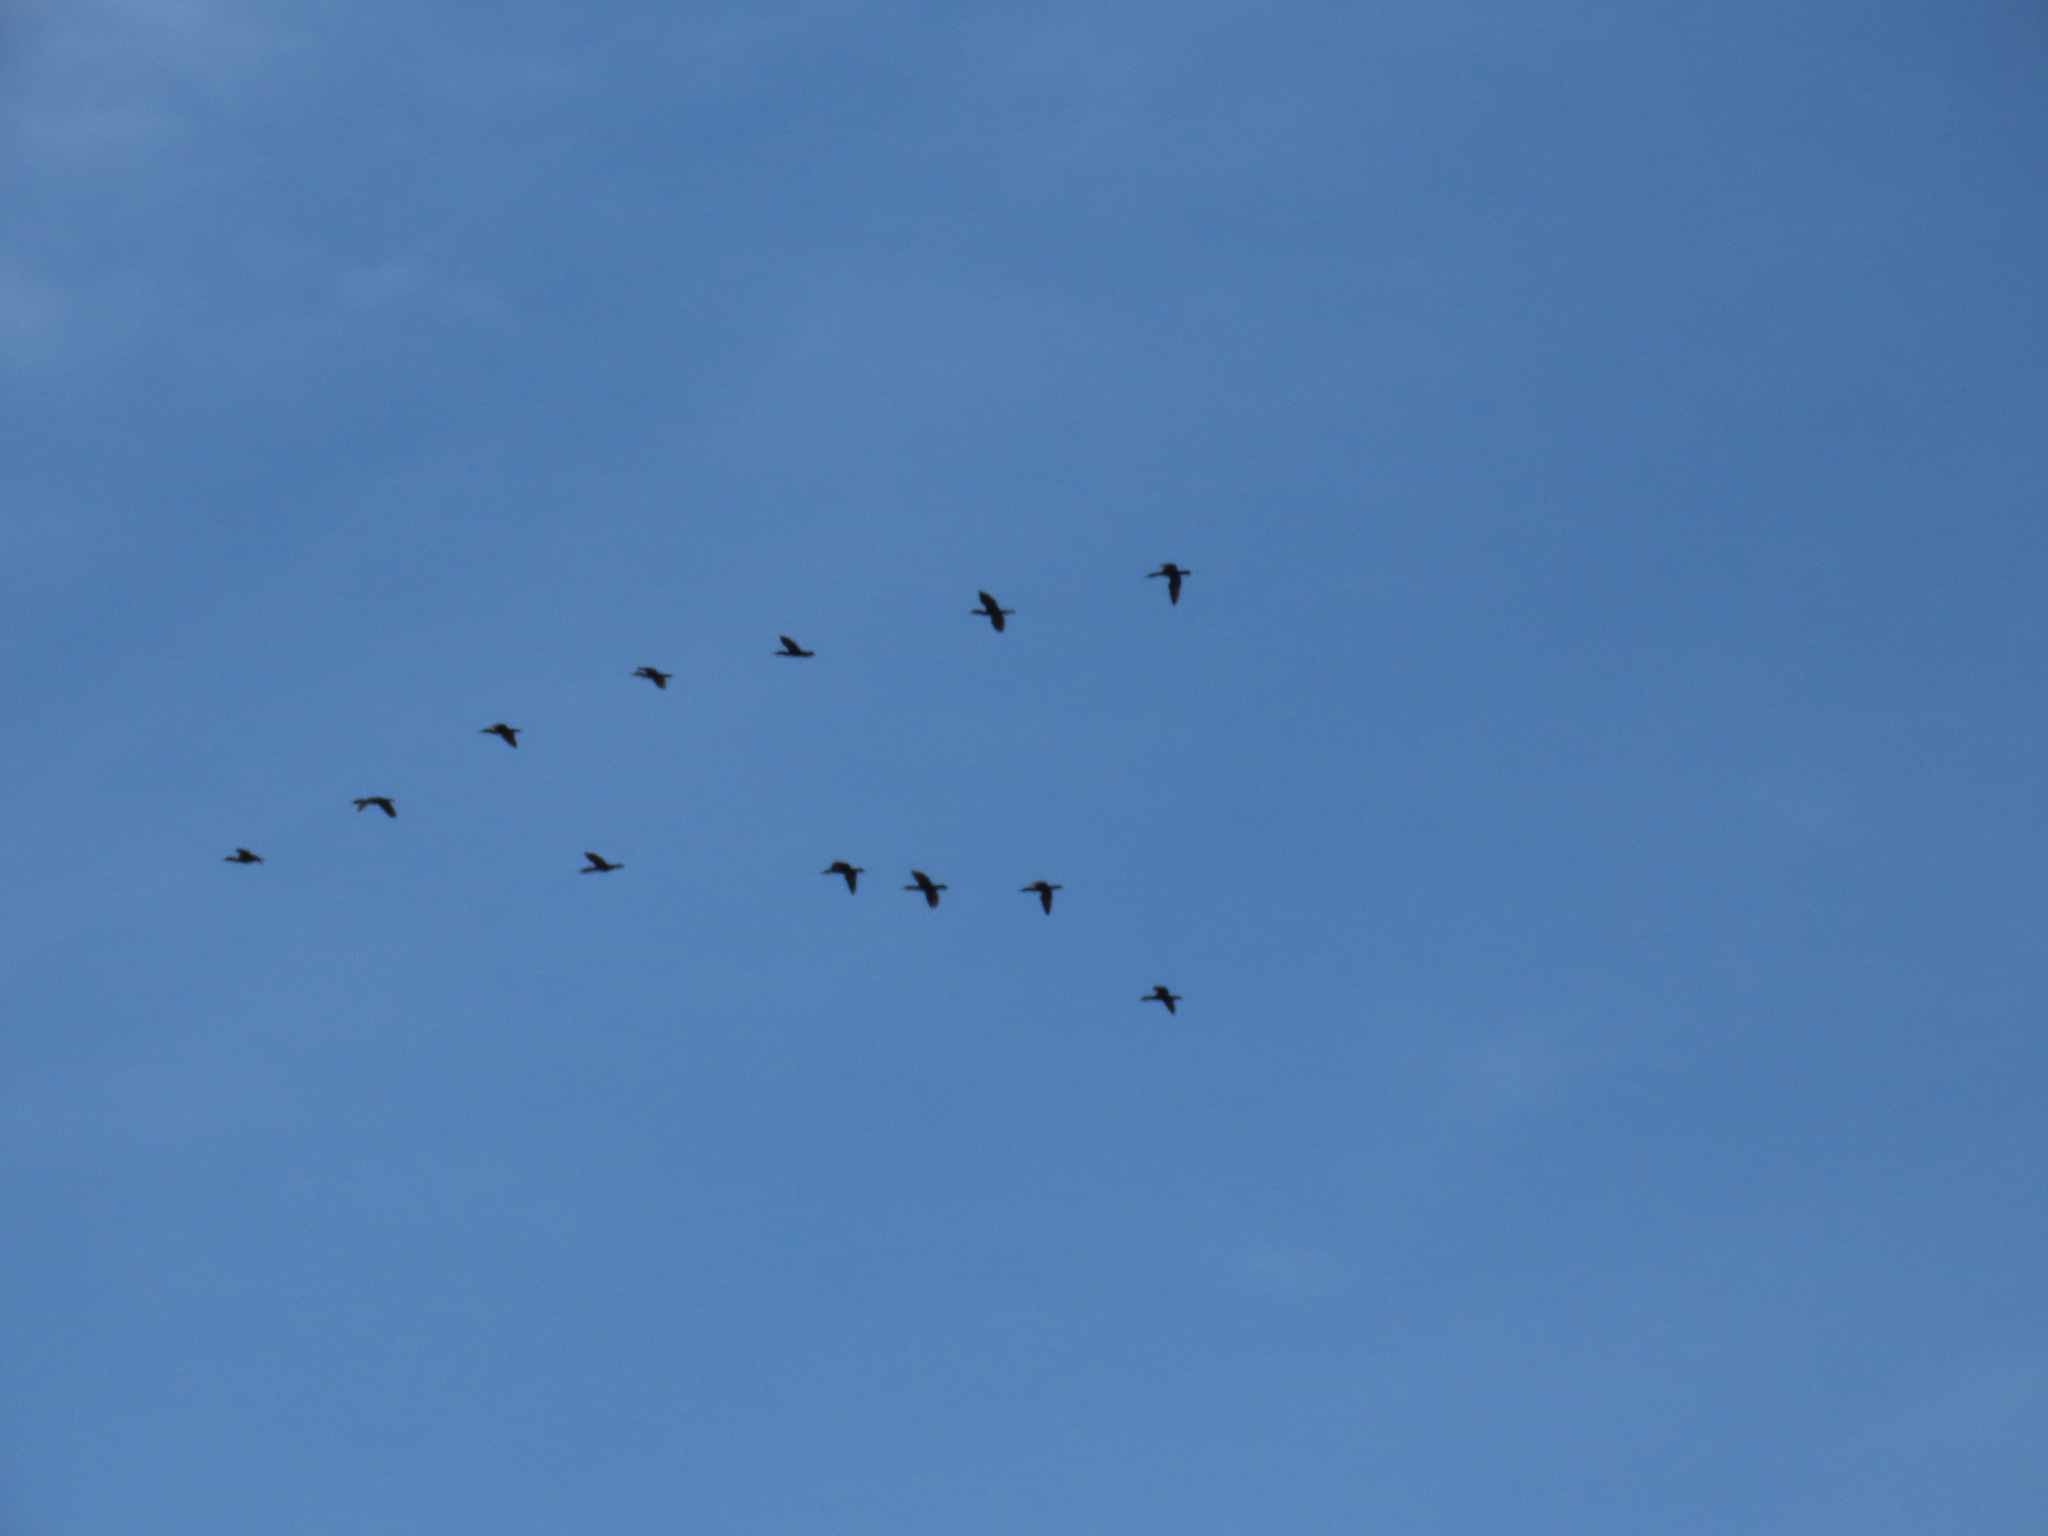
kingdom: Animalia
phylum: Chordata
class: Aves
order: Suliformes
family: Phalacrocoracidae
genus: Phalacrocorax
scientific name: Phalacrocorax auritus
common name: Double-crested cormorant
